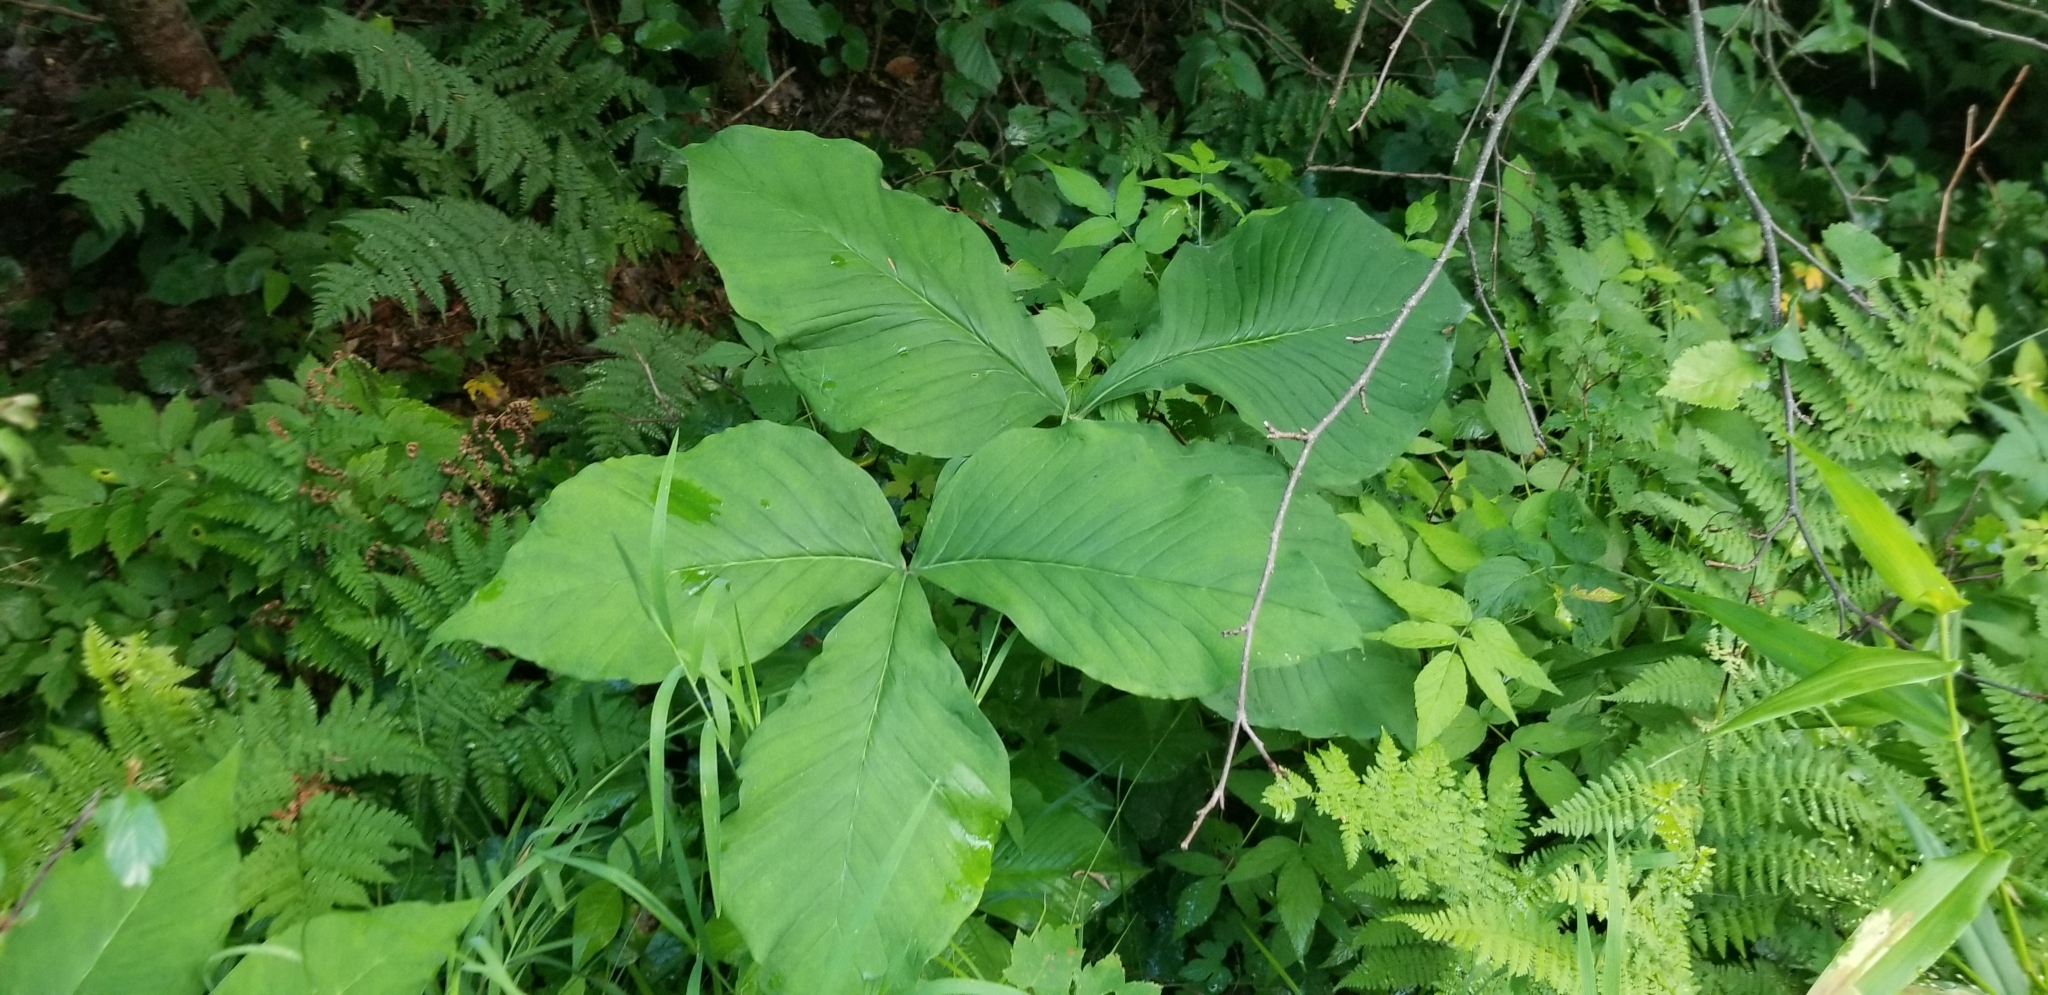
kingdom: Plantae
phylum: Tracheophyta
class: Liliopsida
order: Alismatales
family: Araceae
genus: Arisaema
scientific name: Arisaema triphyllum
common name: Jack-in-the-pulpit
